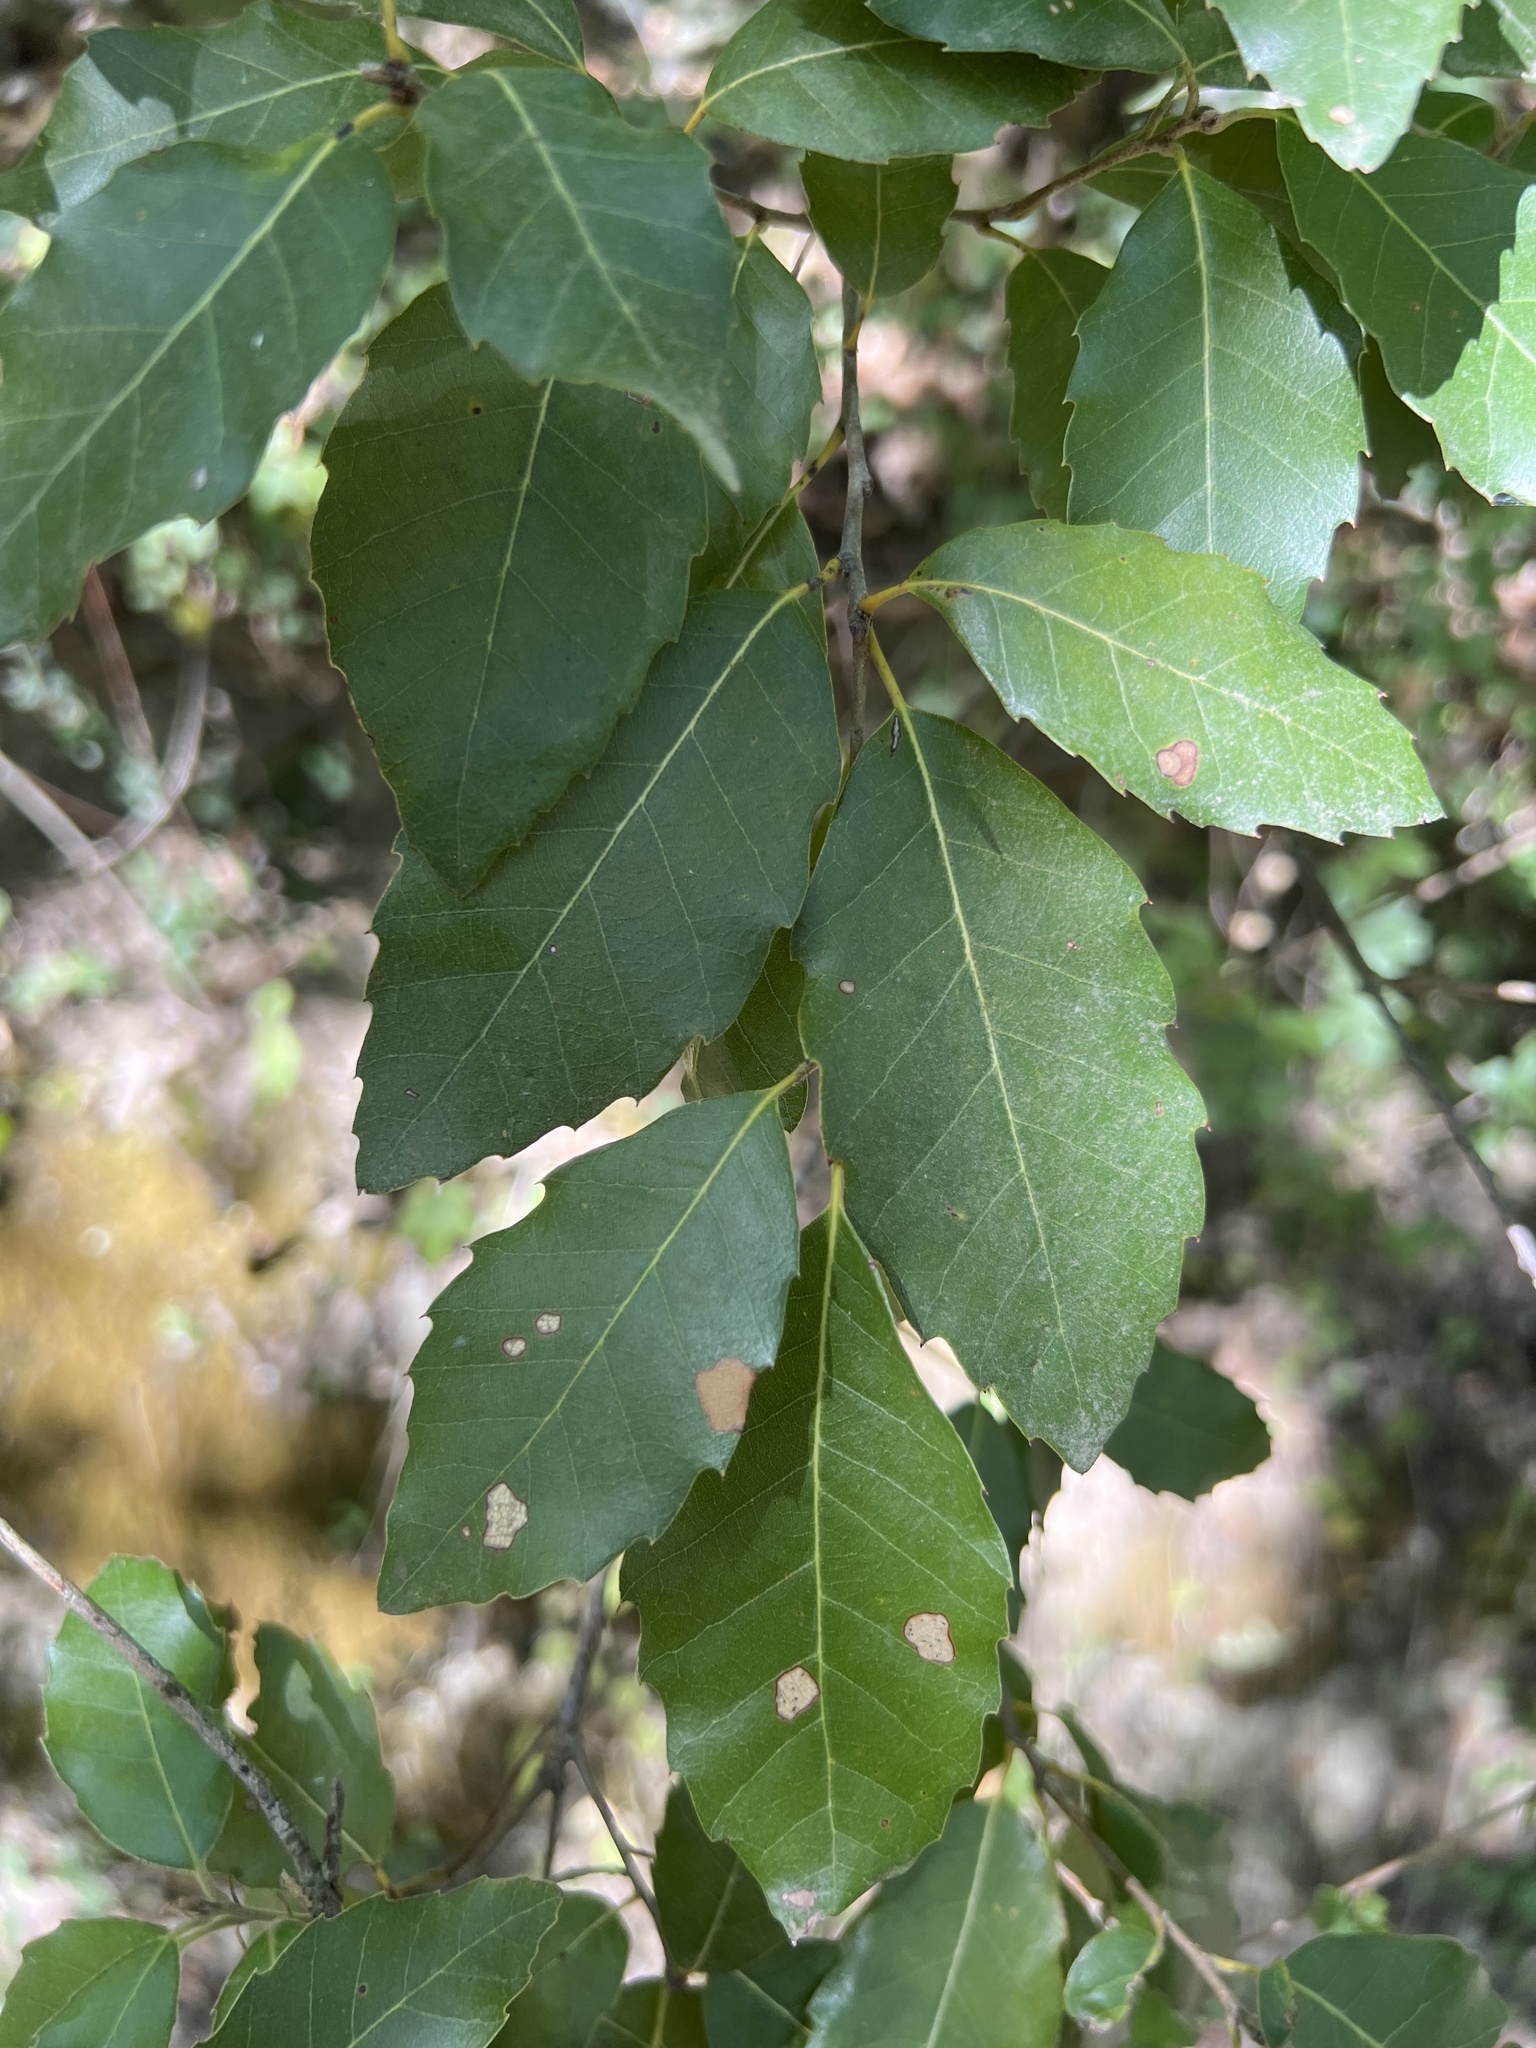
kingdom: Plantae
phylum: Tracheophyta
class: Magnoliopsida
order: Fagales
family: Fagaceae
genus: Quercus
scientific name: Quercus ilex
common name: Evergreen oak
